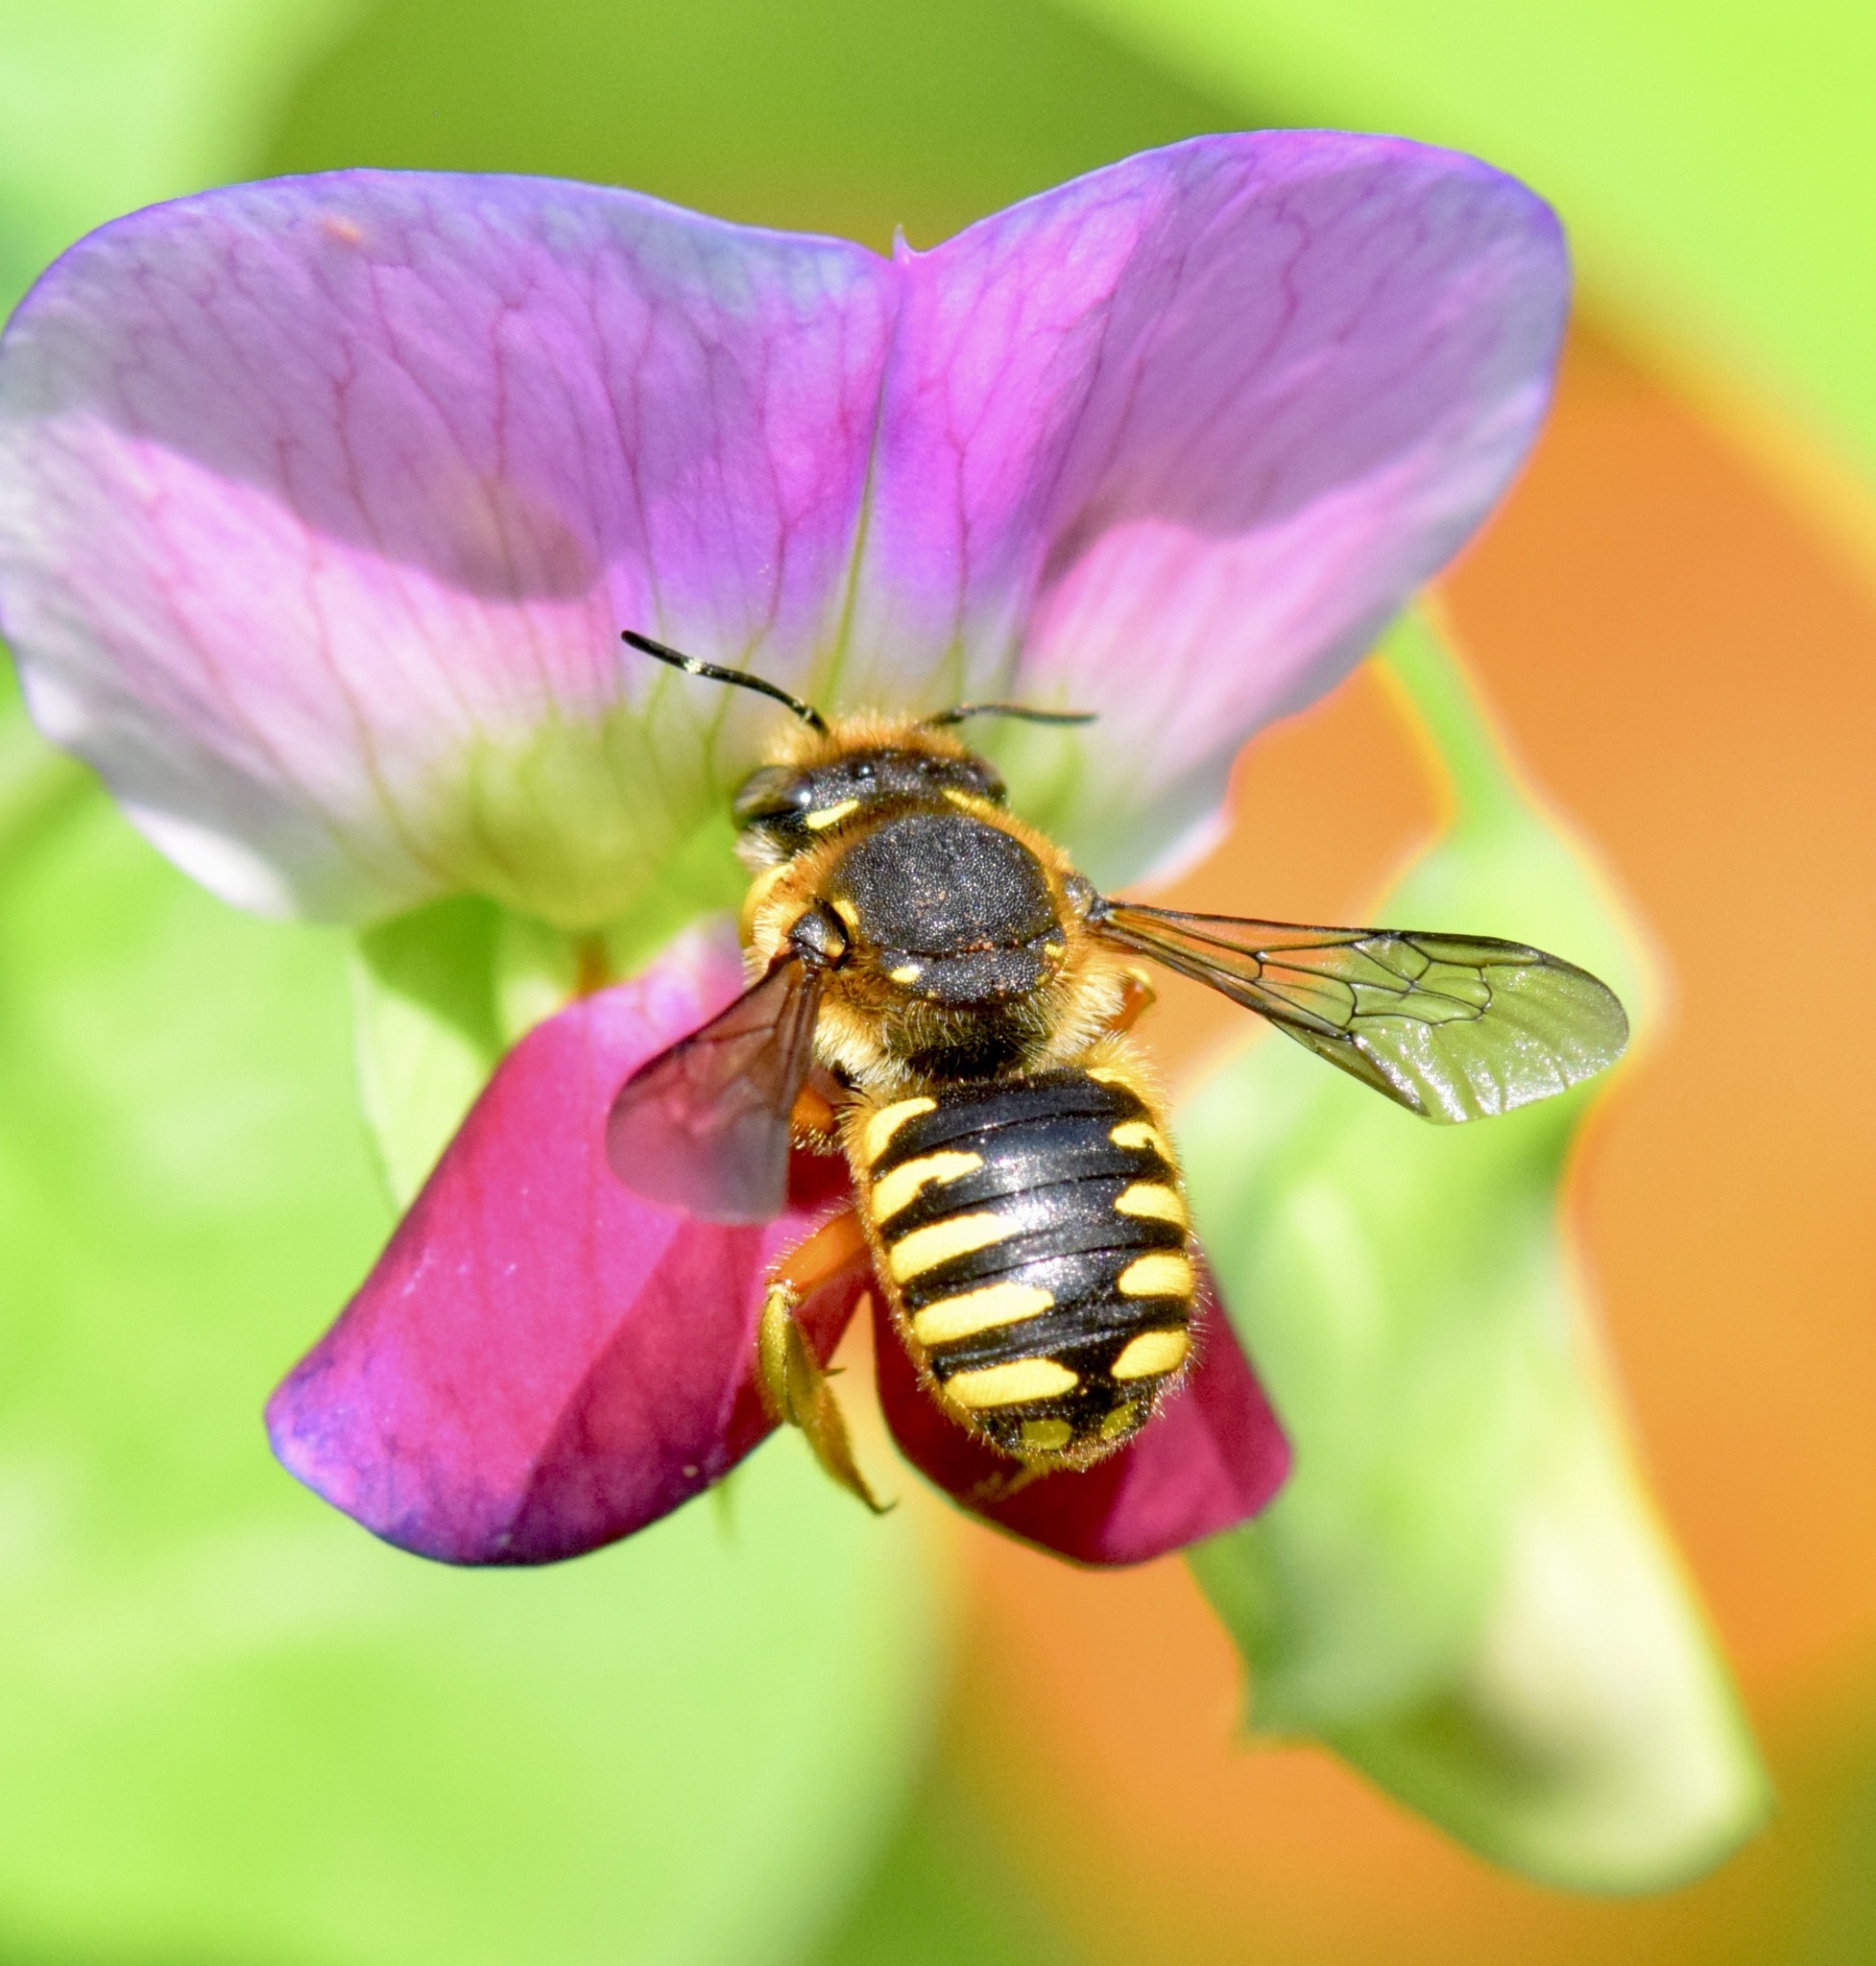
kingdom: Animalia
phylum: Arthropoda
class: Insecta
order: Hymenoptera
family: Megachilidae
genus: Anthidium
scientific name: Anthidium manicatum
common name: Wool carder bee
